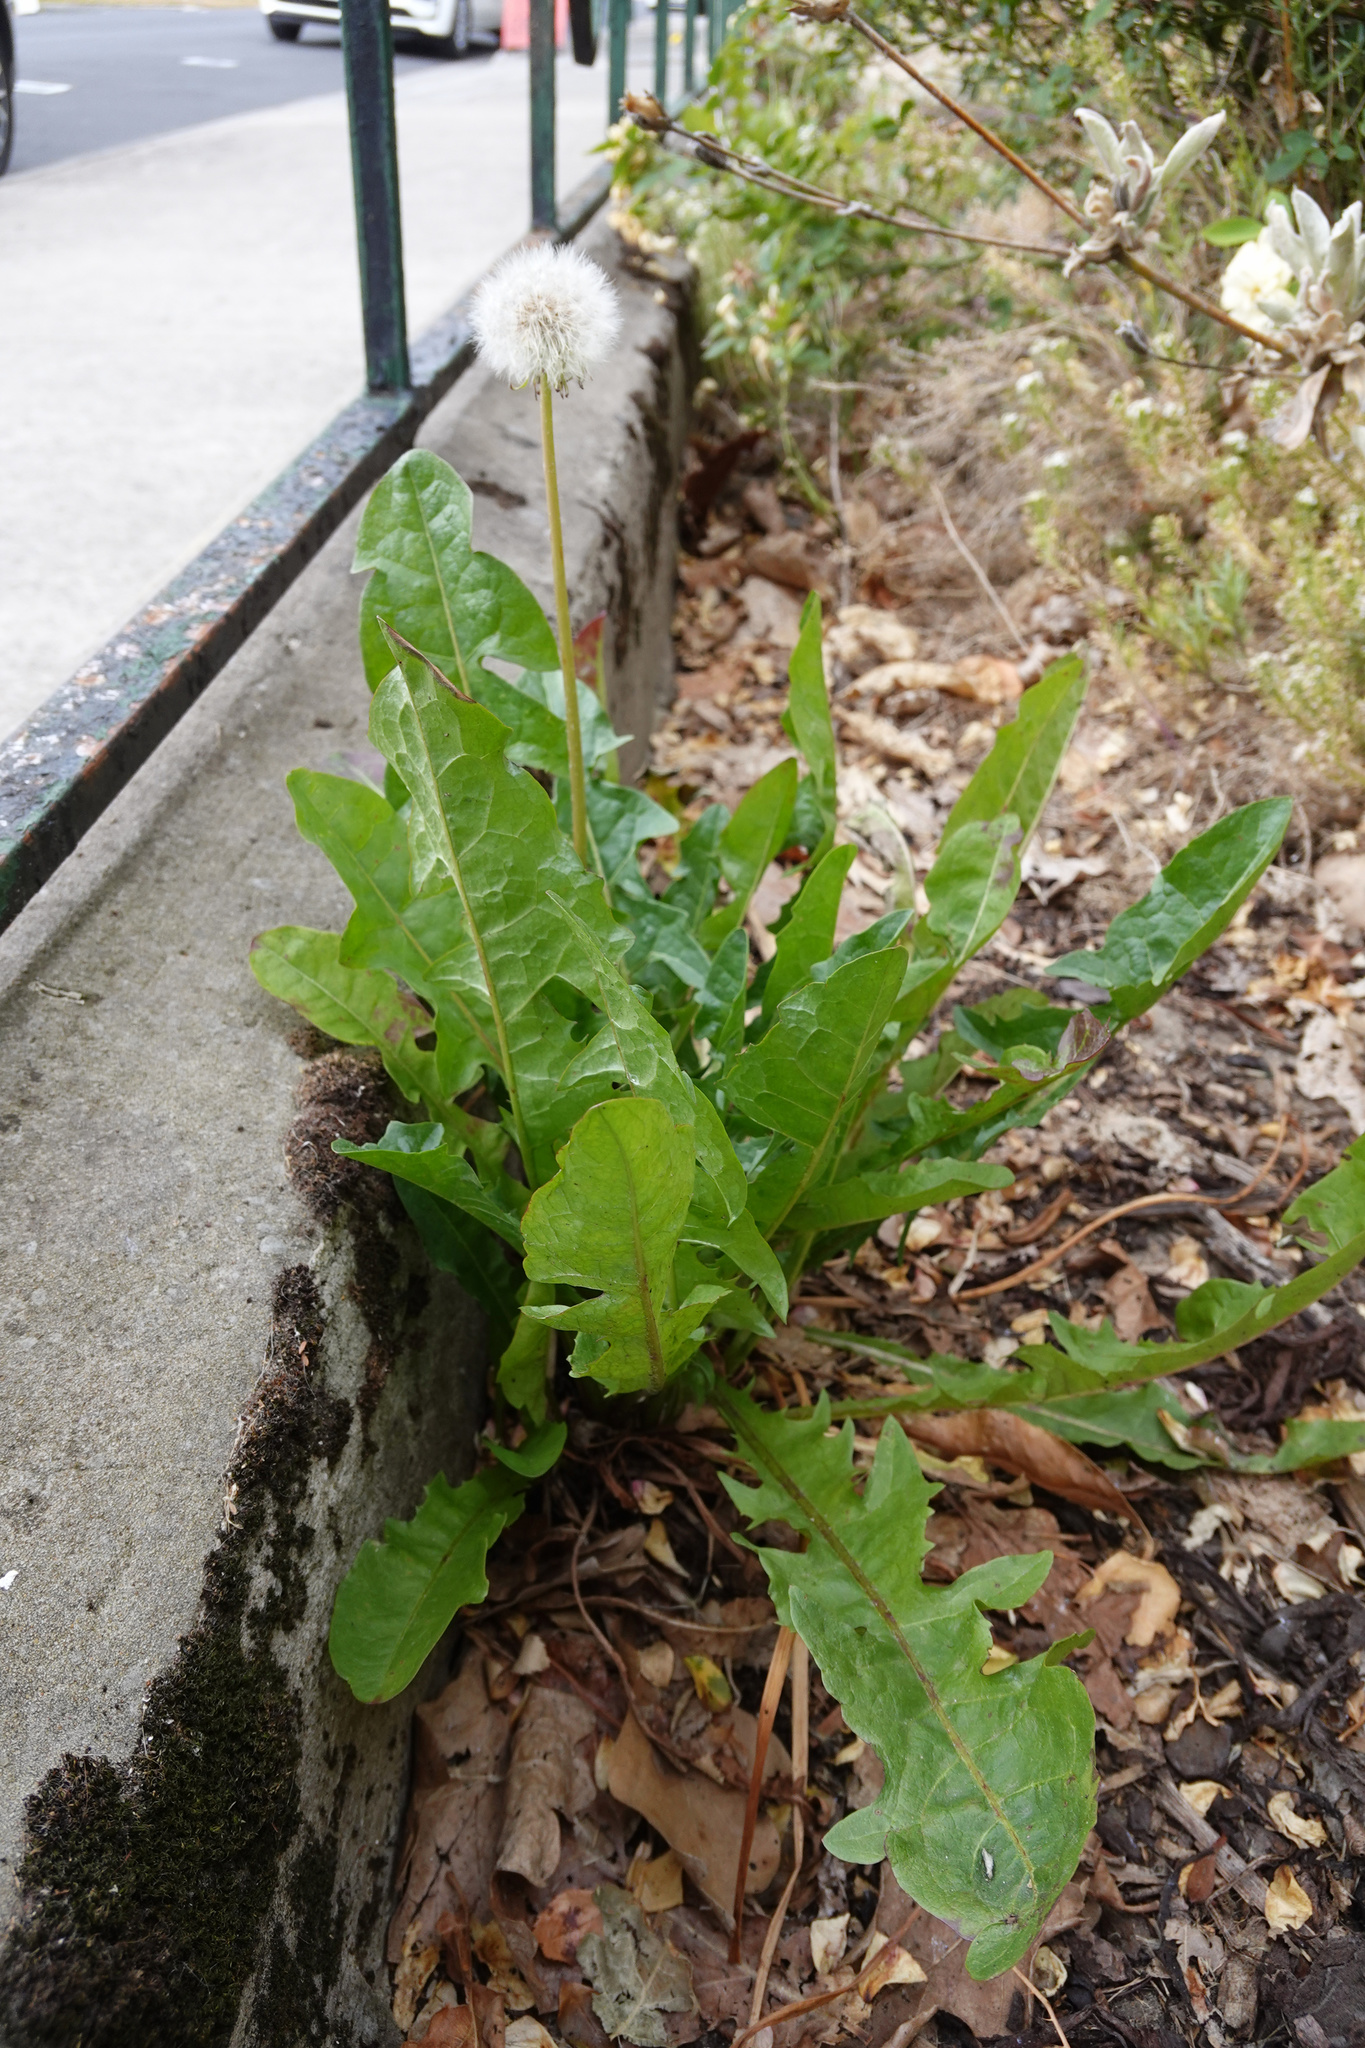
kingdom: Plantae
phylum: Tracheophyta
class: Magnoliopsida
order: Asterales
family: Asteraceae
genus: Taraxacum
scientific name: Taraxacum officinale
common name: Common dandelion
